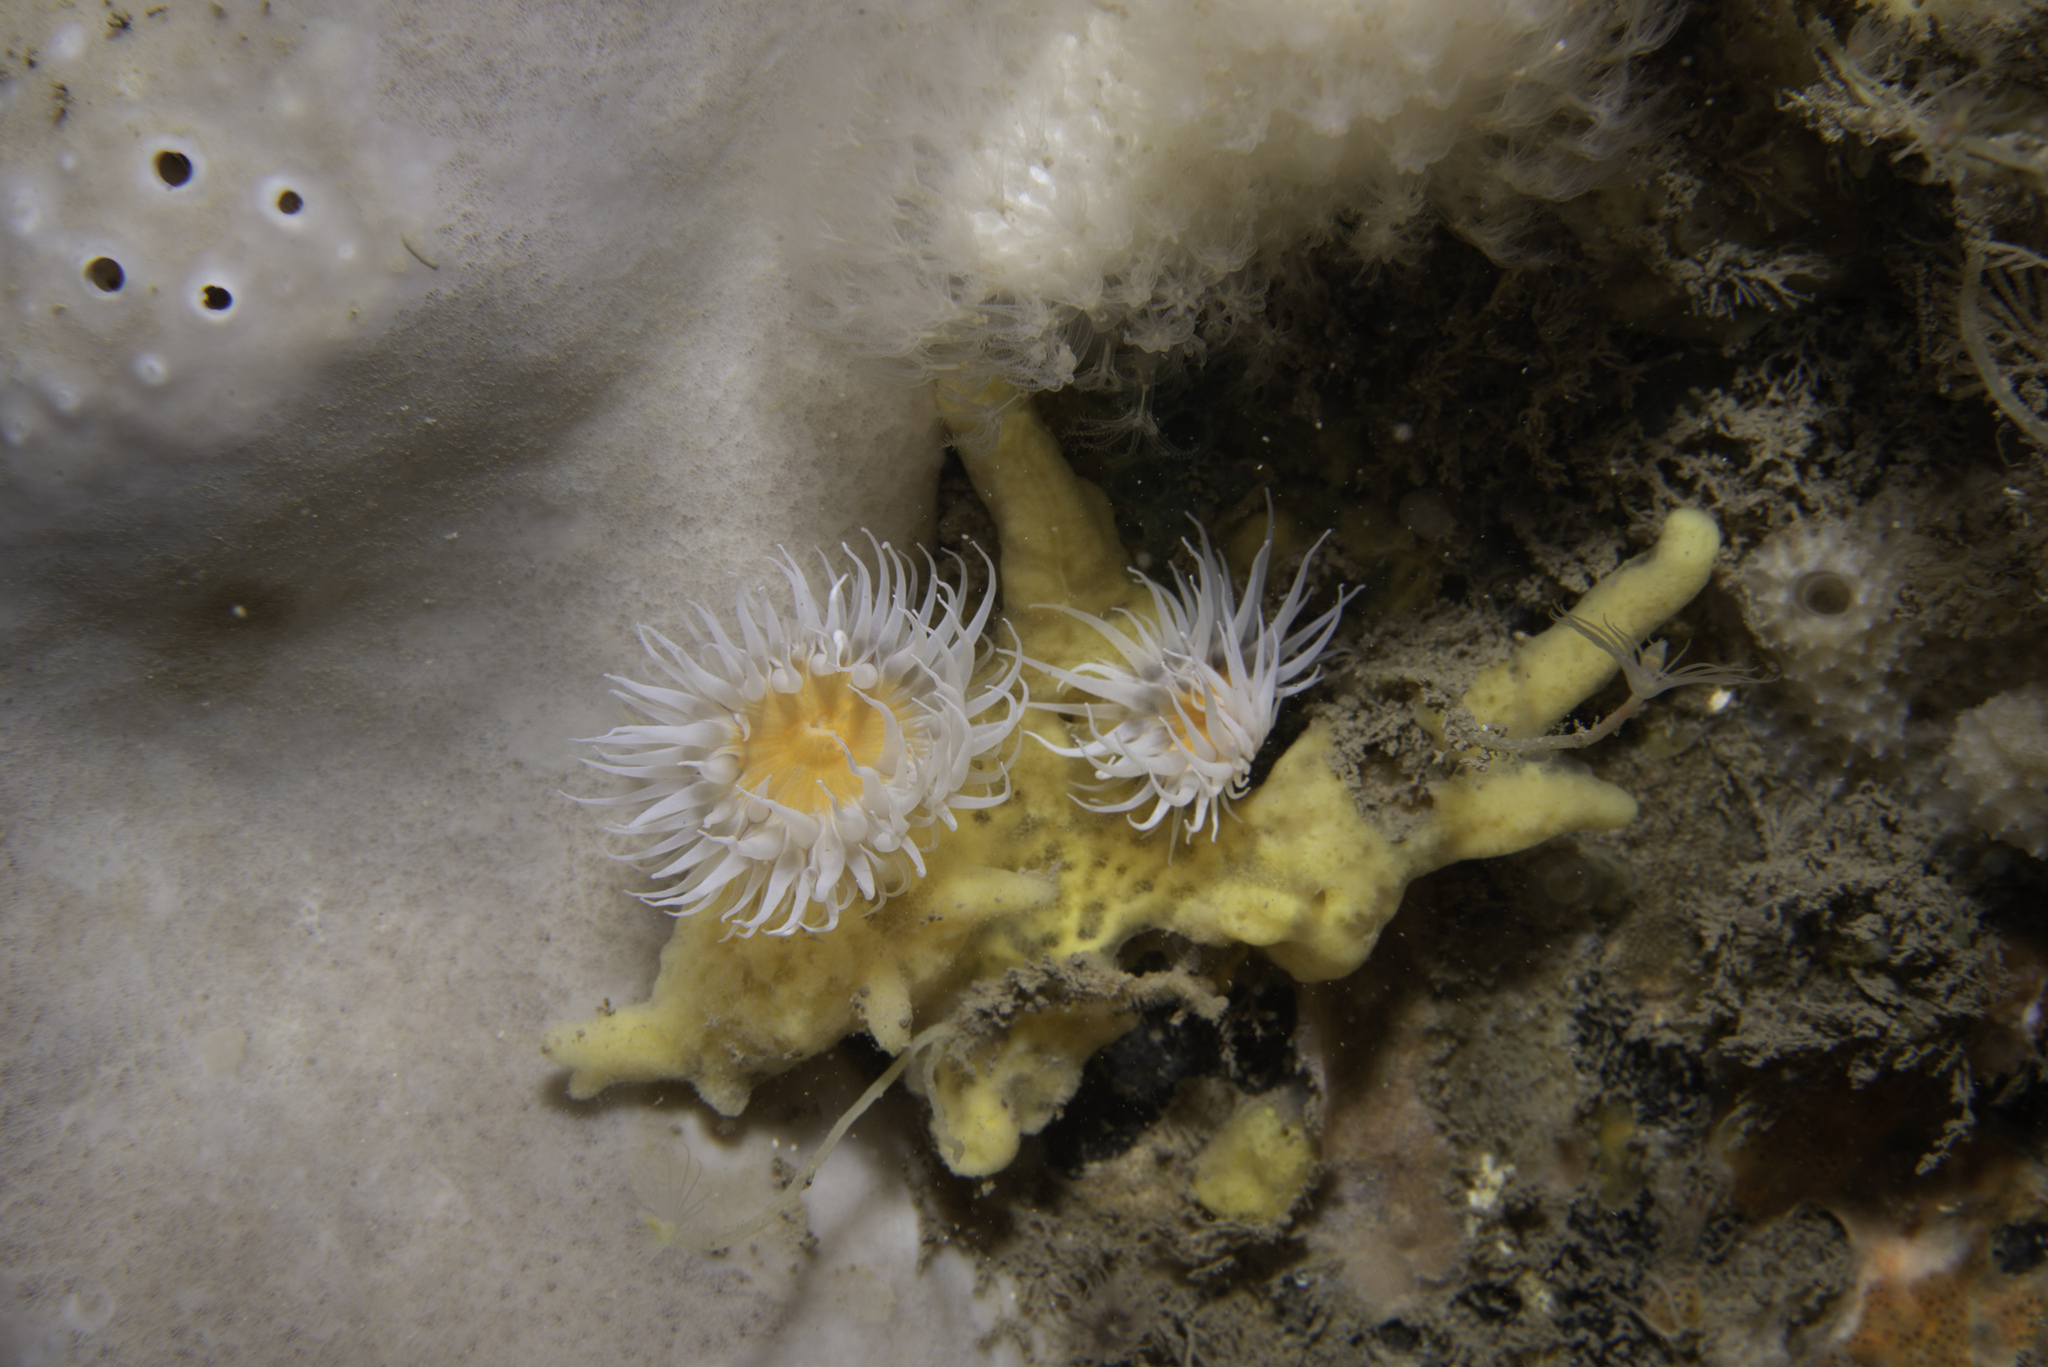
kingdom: Animalia
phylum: Cnidaria
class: Anthozoa
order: Actiniaria
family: Sagartiidae
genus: Actinothoe
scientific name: Actinothoe sphyrodeta
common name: Sandalled anemone
